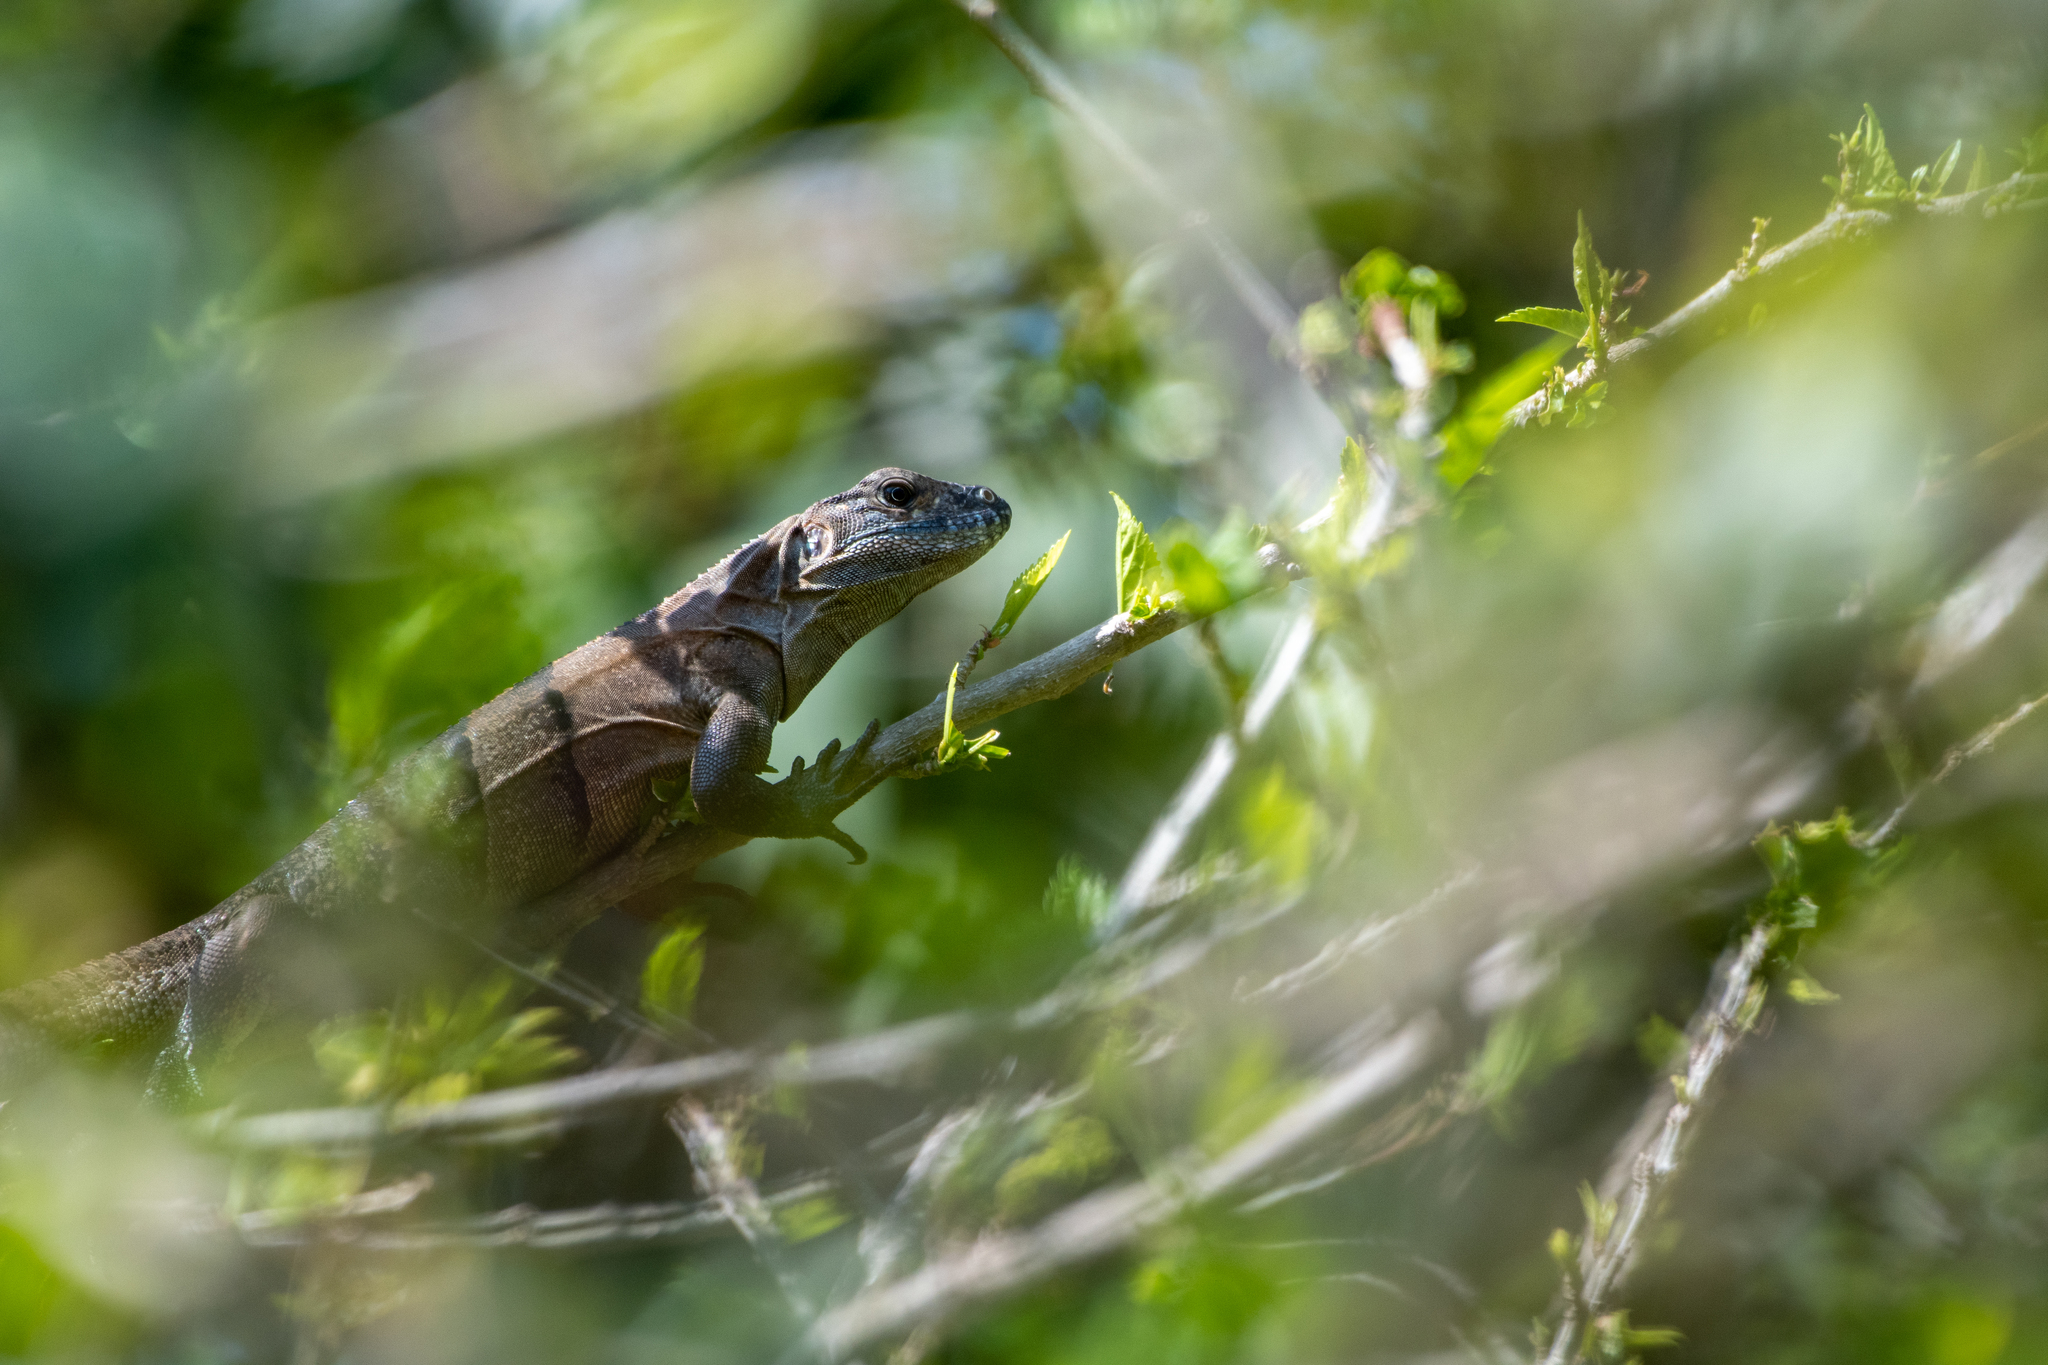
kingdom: Animalia
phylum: Chordata
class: Squamata
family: Iguanidae
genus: Ctenosaura
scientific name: Ctenosaura similis
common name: Black spiny-tailed iguana
